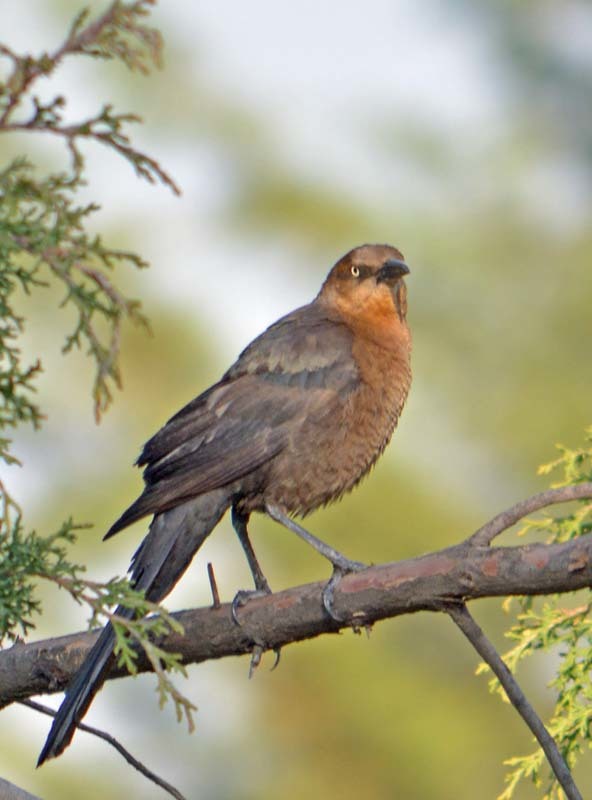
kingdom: Animalia
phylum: Chordata
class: Aves
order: Passeriformes
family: Icteridae
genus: Quiscalus
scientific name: Quiscalus mexicanus
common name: Great-tailed grackle
